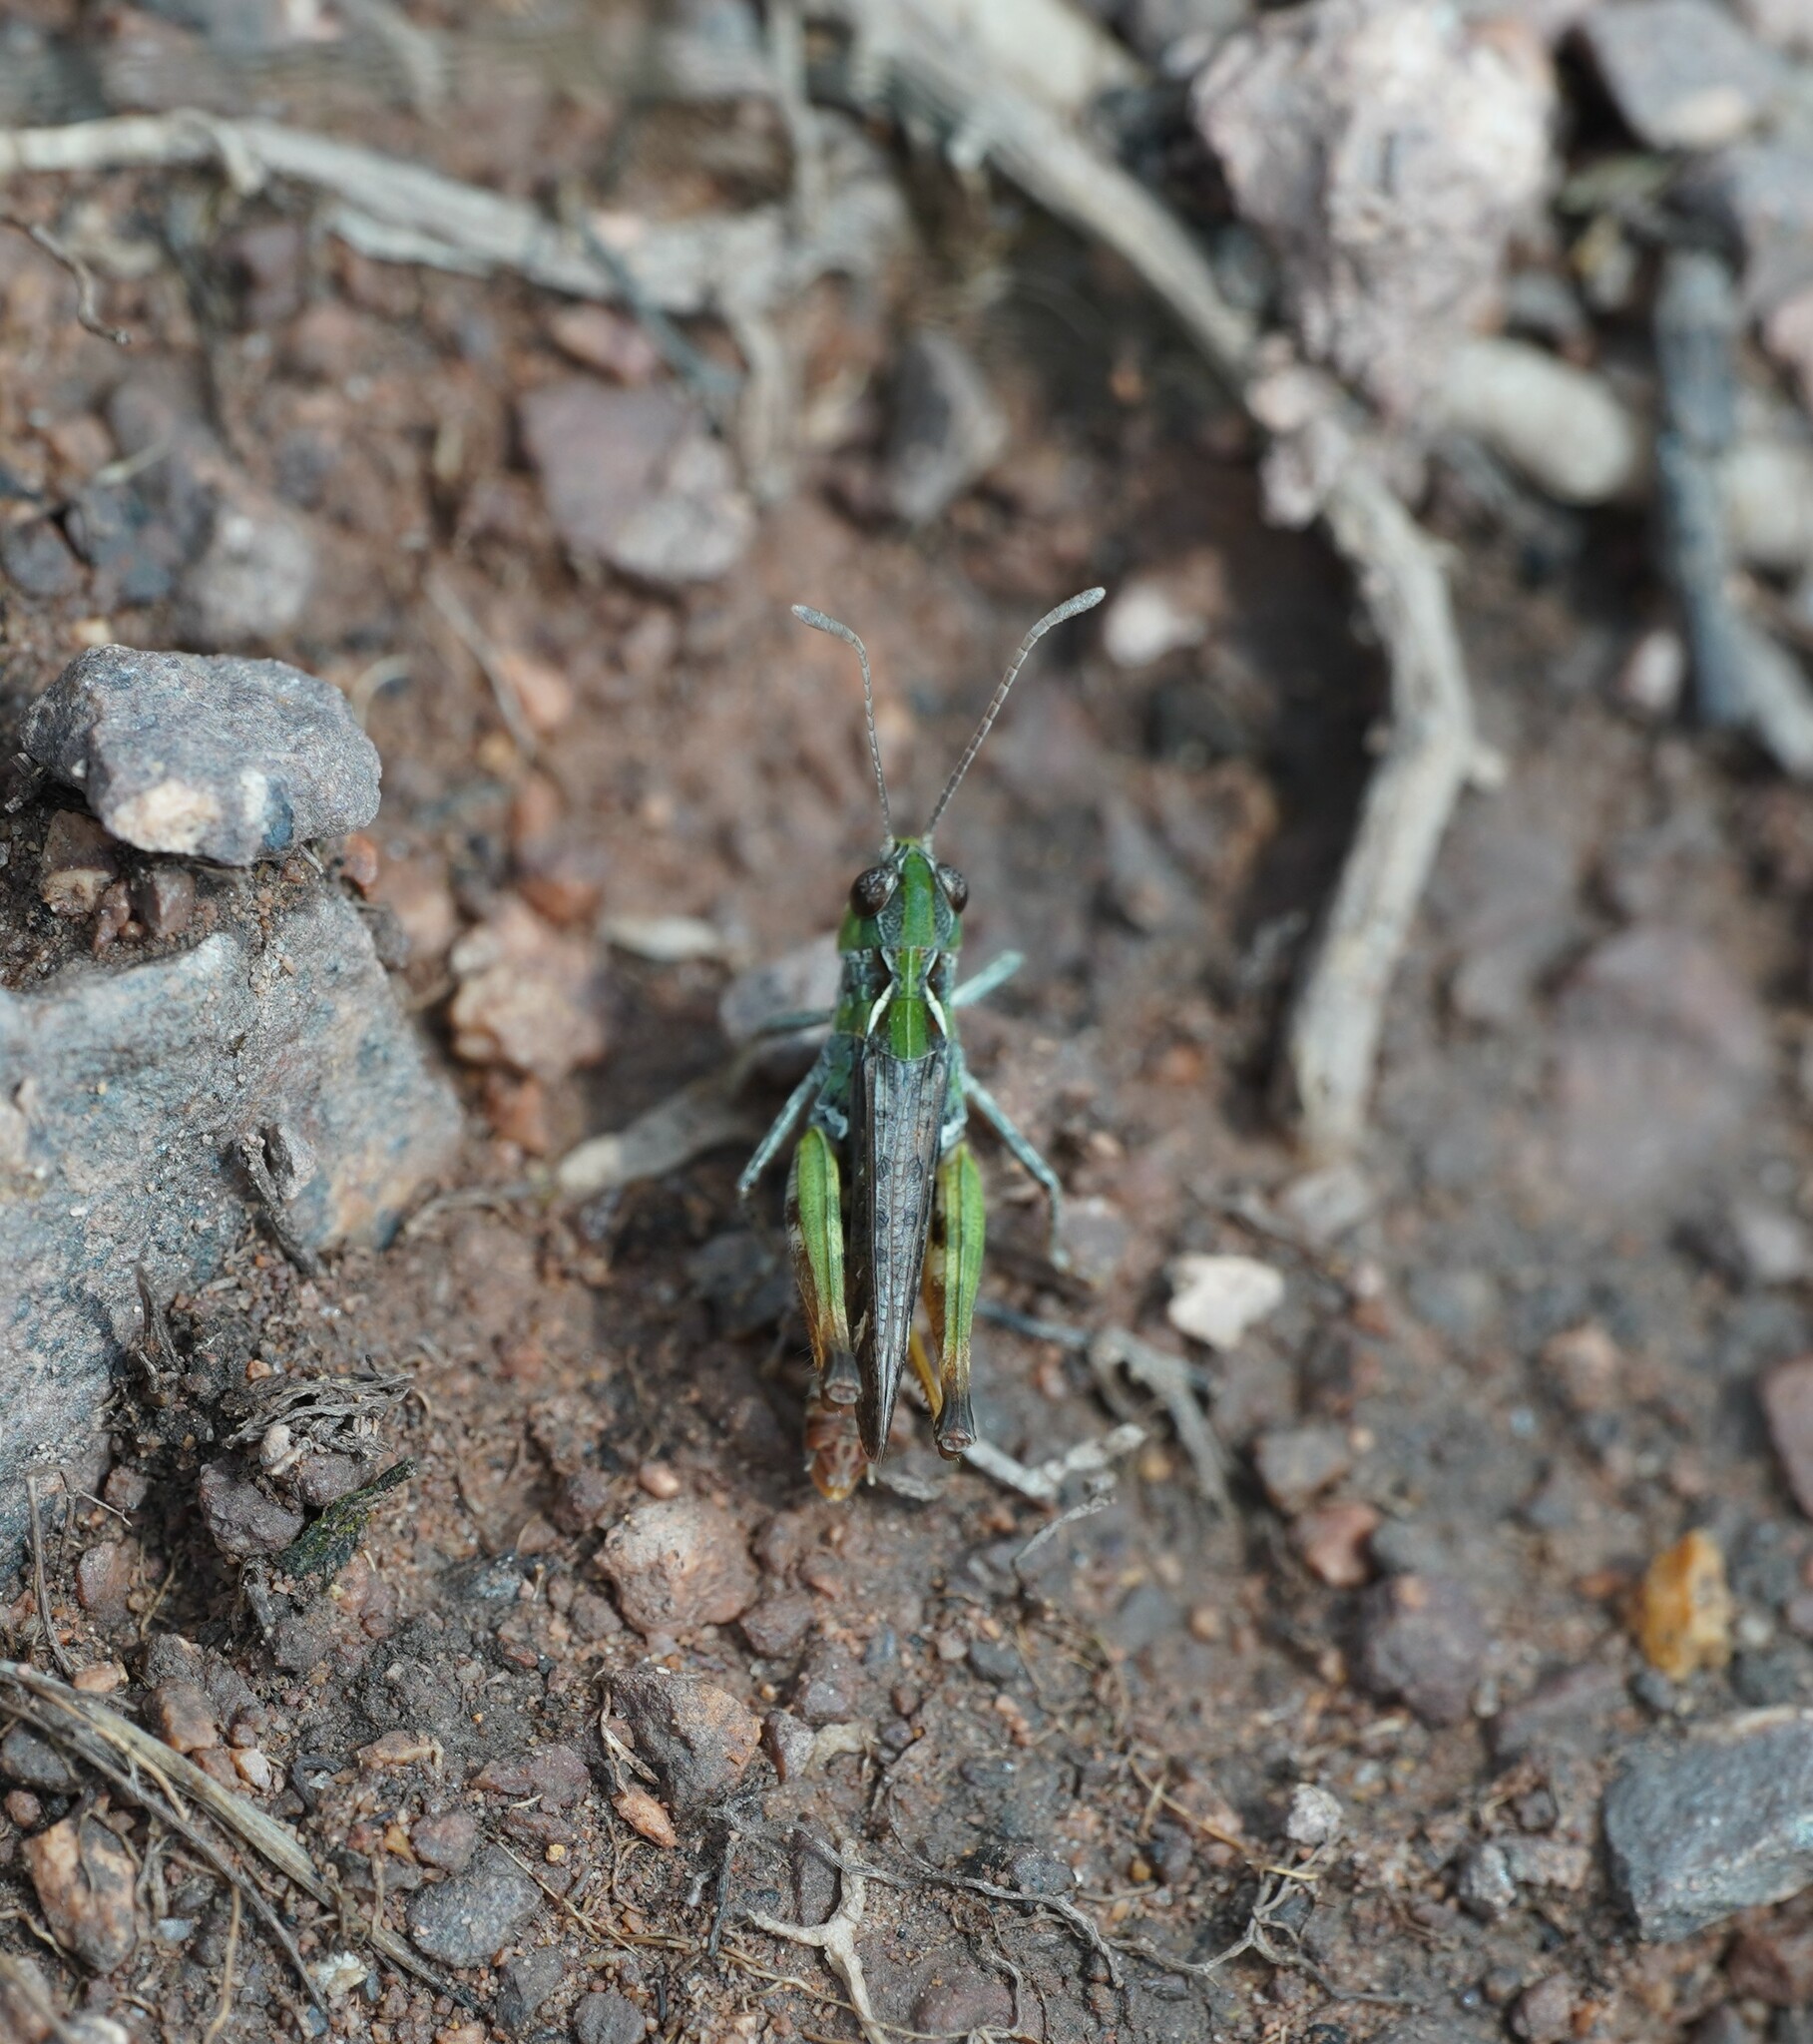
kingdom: Animalia
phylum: Arthropoda
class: Insecta
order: Orthoptera
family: Acrididae
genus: Myrmeleotettix
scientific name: Myrmeleotettix maculatus
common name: Mottled grasshopper
